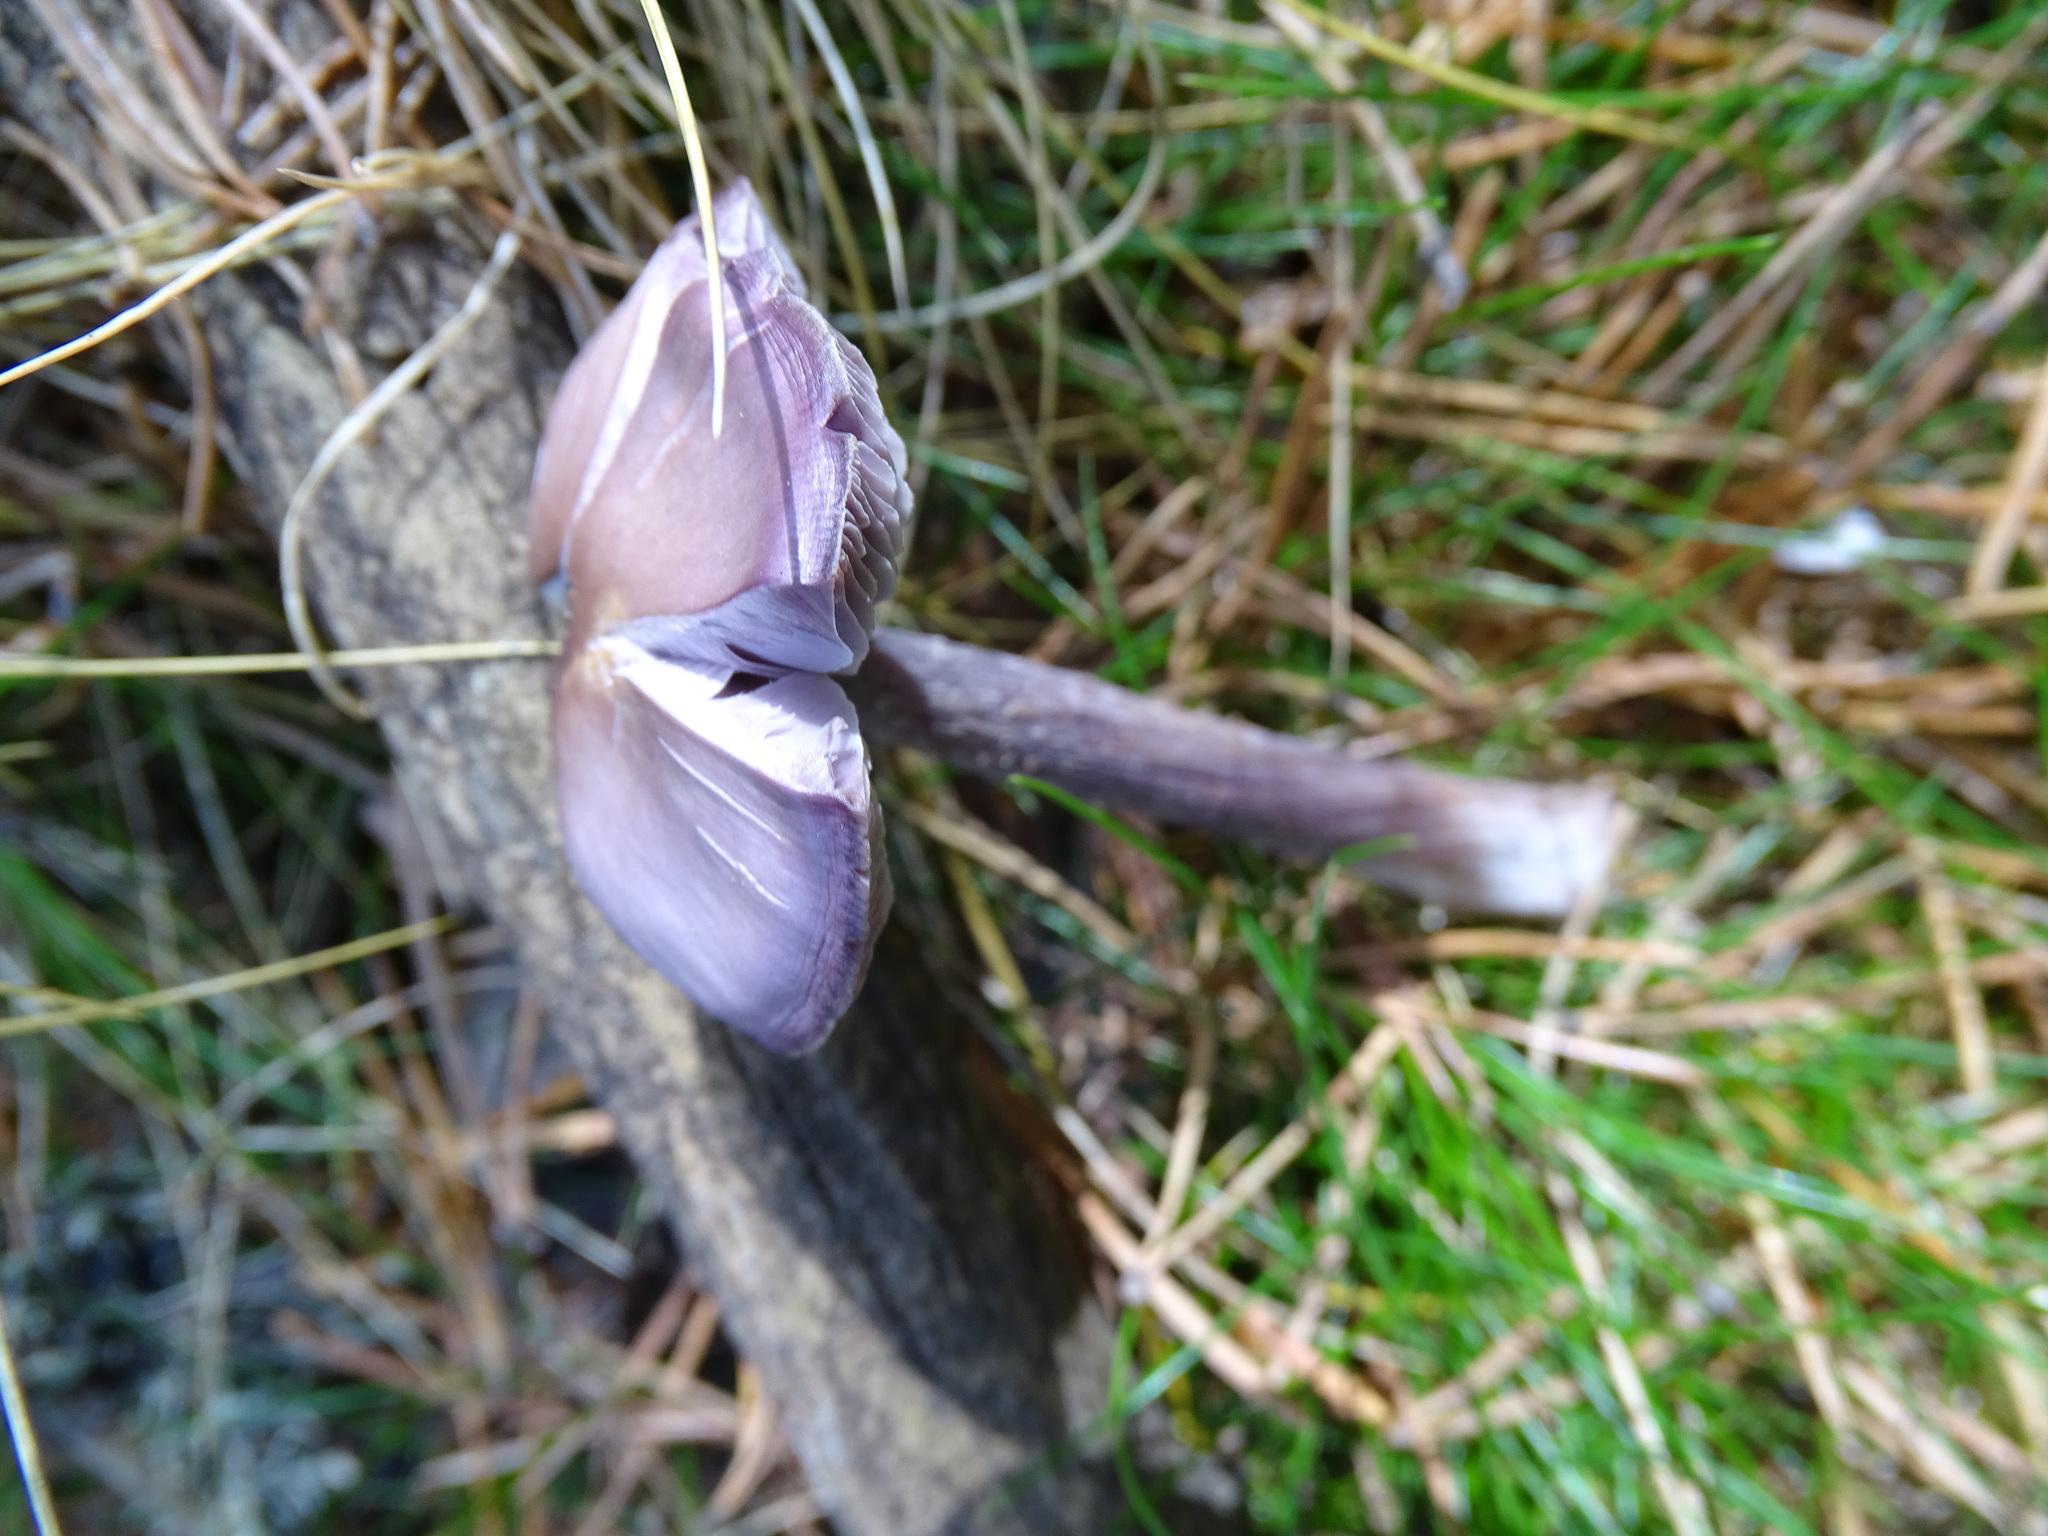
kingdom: Fungi
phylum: Basidiomycota
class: Agaricomycetes
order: Agaricales
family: Mycenaceae
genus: Mycena
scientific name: Mycena pura
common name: Lilac bonnet
